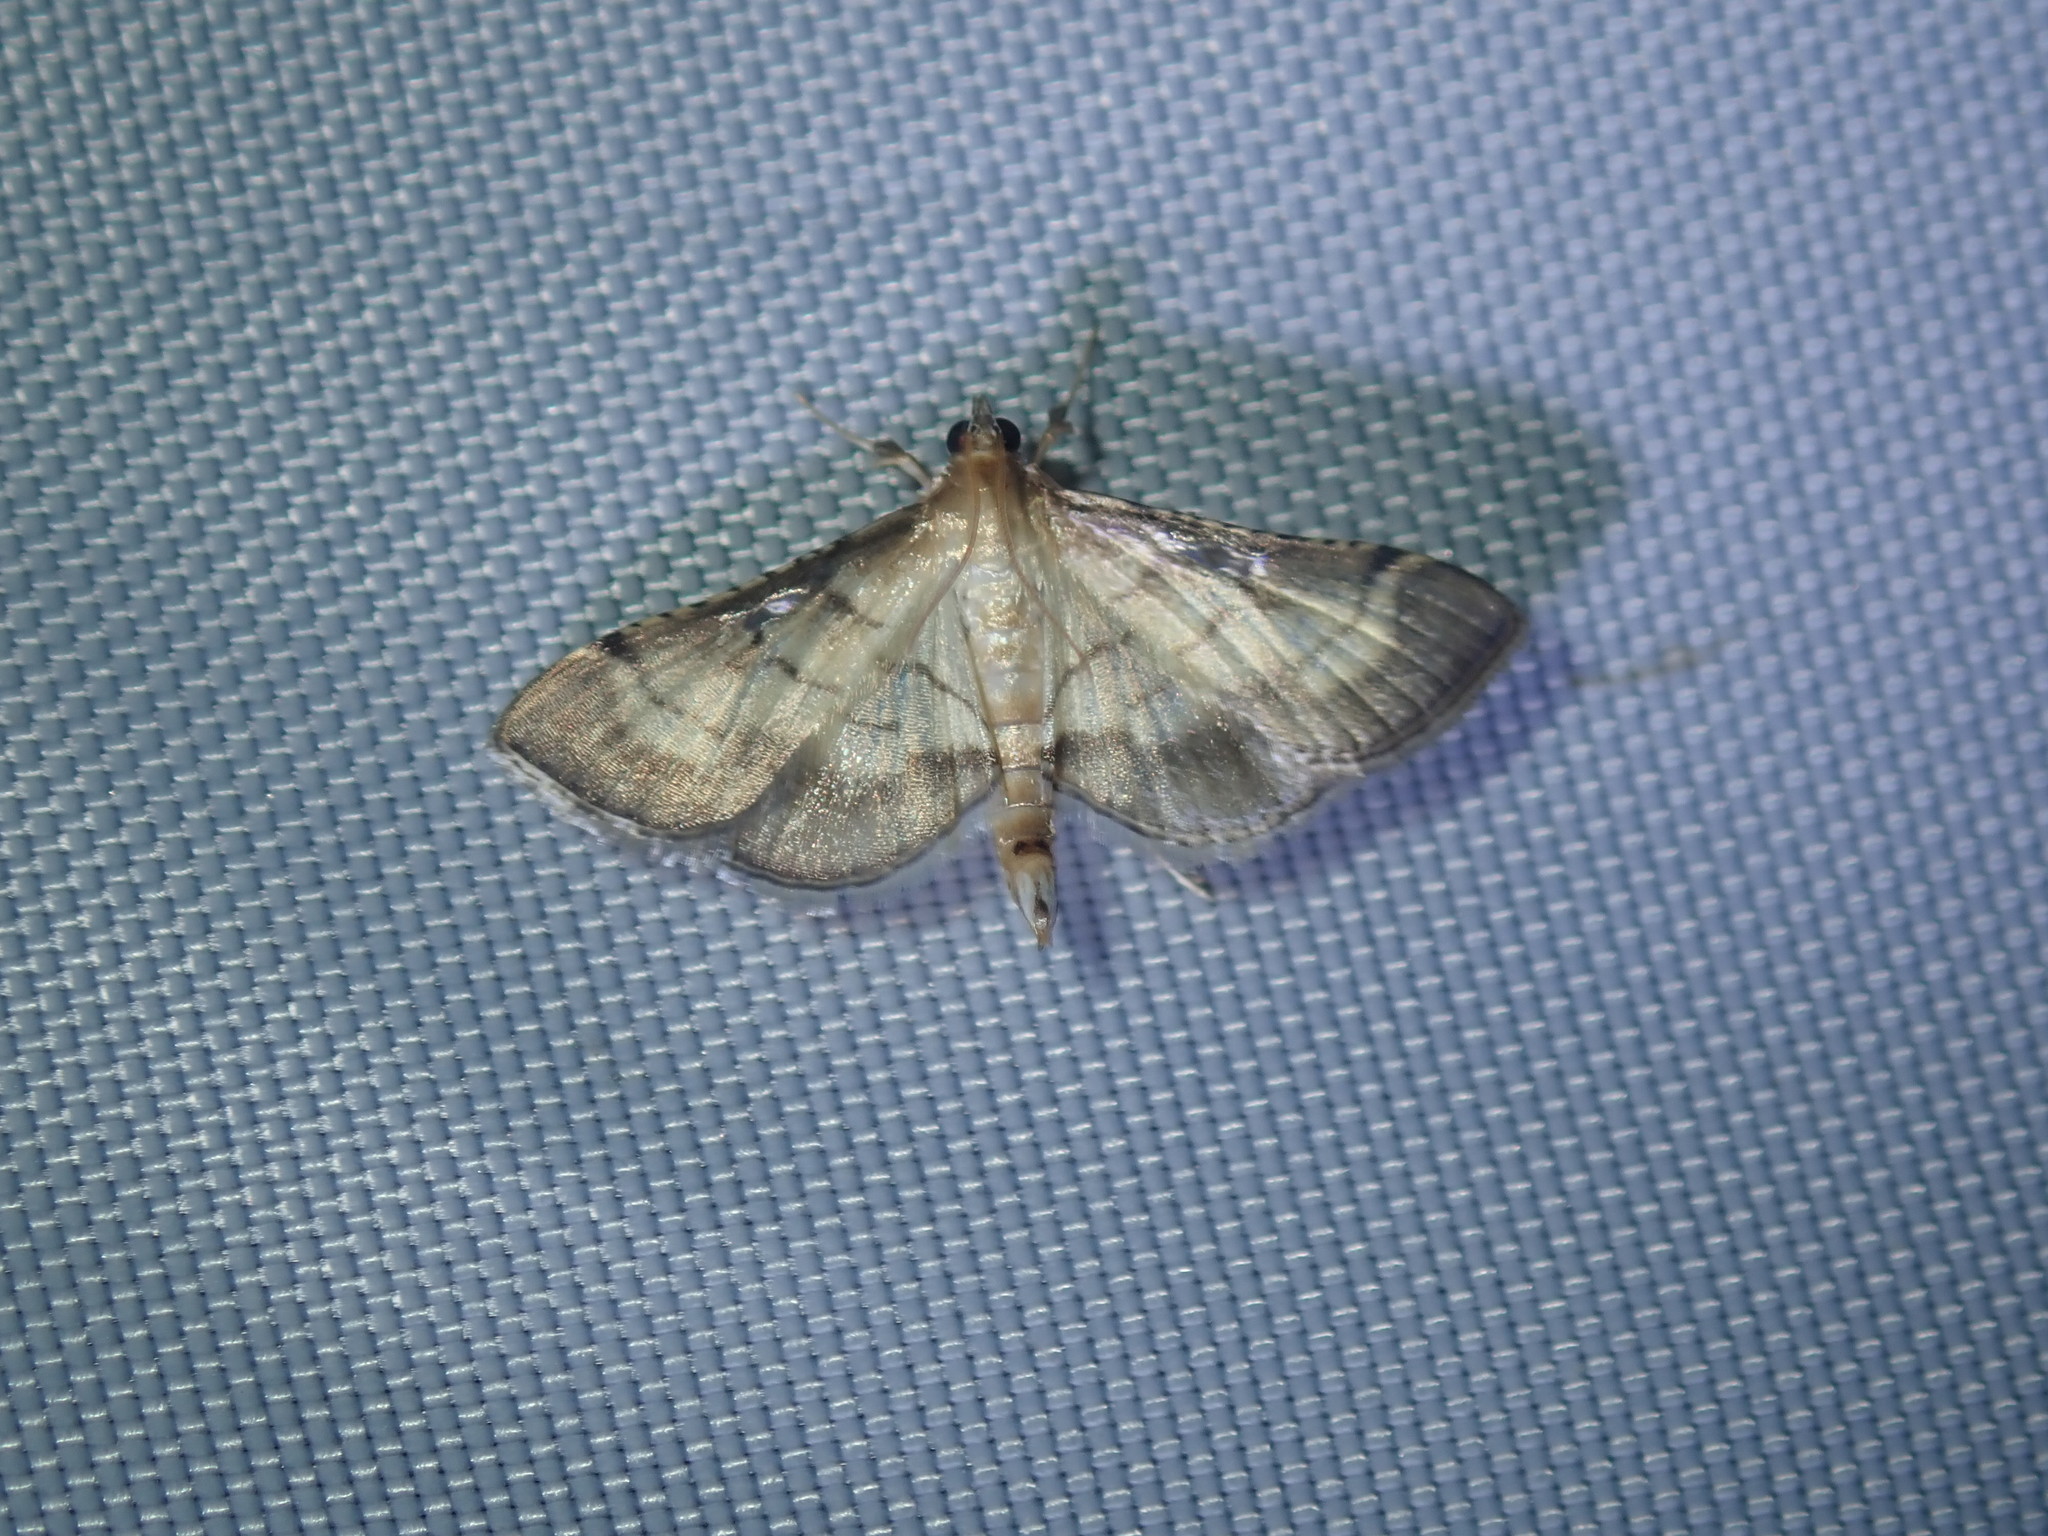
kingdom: Animalia
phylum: Arthropoda
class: Insecta
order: Lepidoptera
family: Crambidae
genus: Cnaphalocrocis
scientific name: Cnaphalocrocis poeyalis
